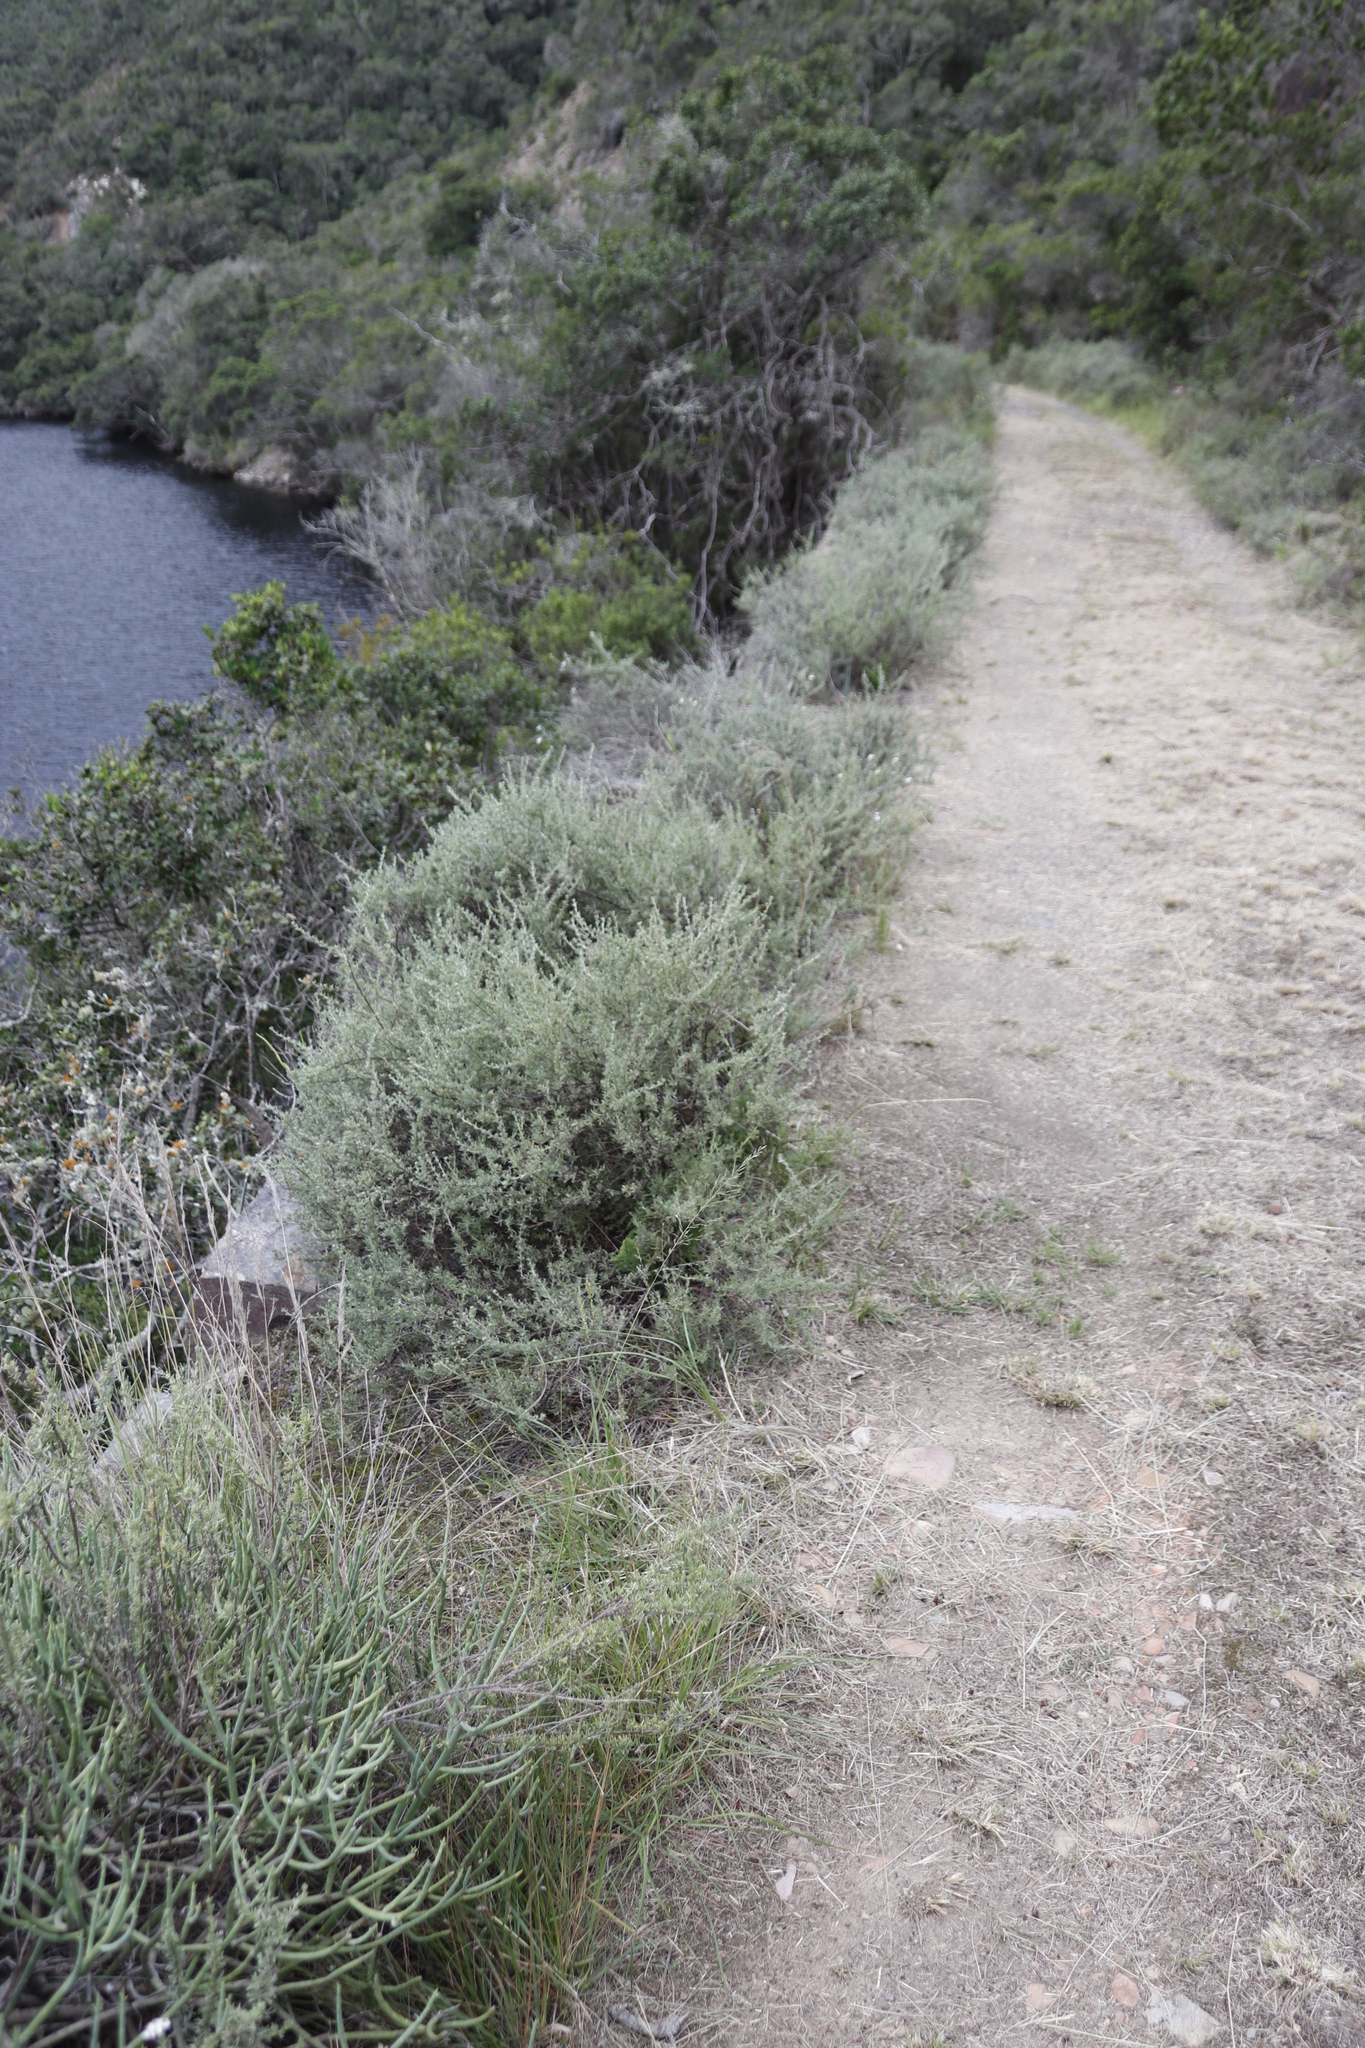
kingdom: Plantae
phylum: Tracheophyta
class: Magnoliopsida
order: Asterales
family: Asteraceae
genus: Eriocephalus
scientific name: Eriocephalus africanus
